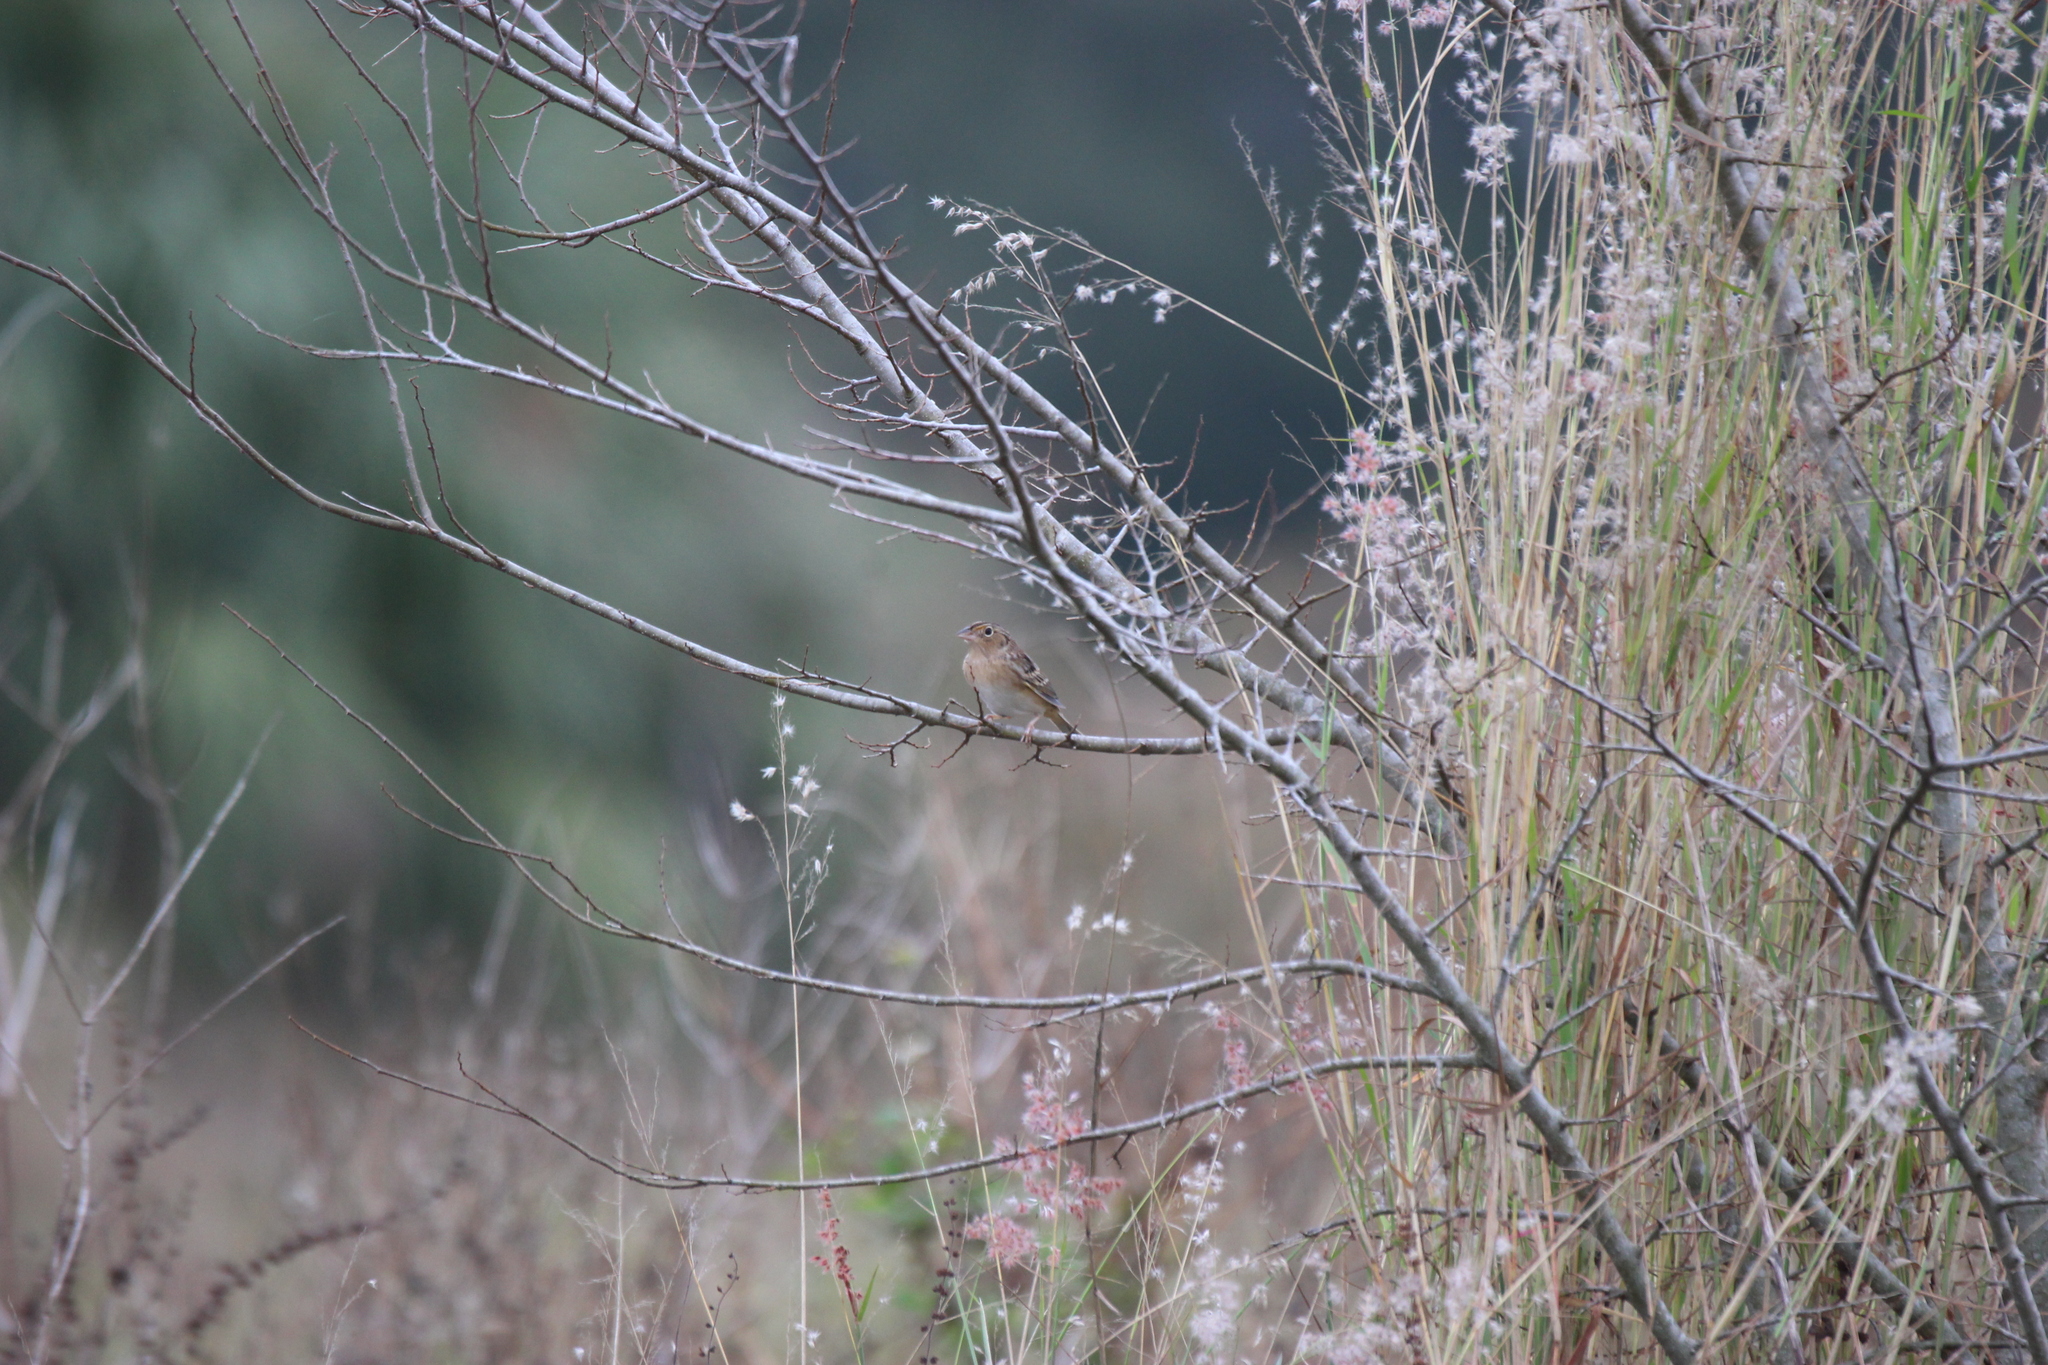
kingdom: Animalia
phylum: Chordata
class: Aves
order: Passeriformes
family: Passerellidae
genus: Ammodramus
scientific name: Ammodramus savannarum
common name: Grasshopper sparrow
